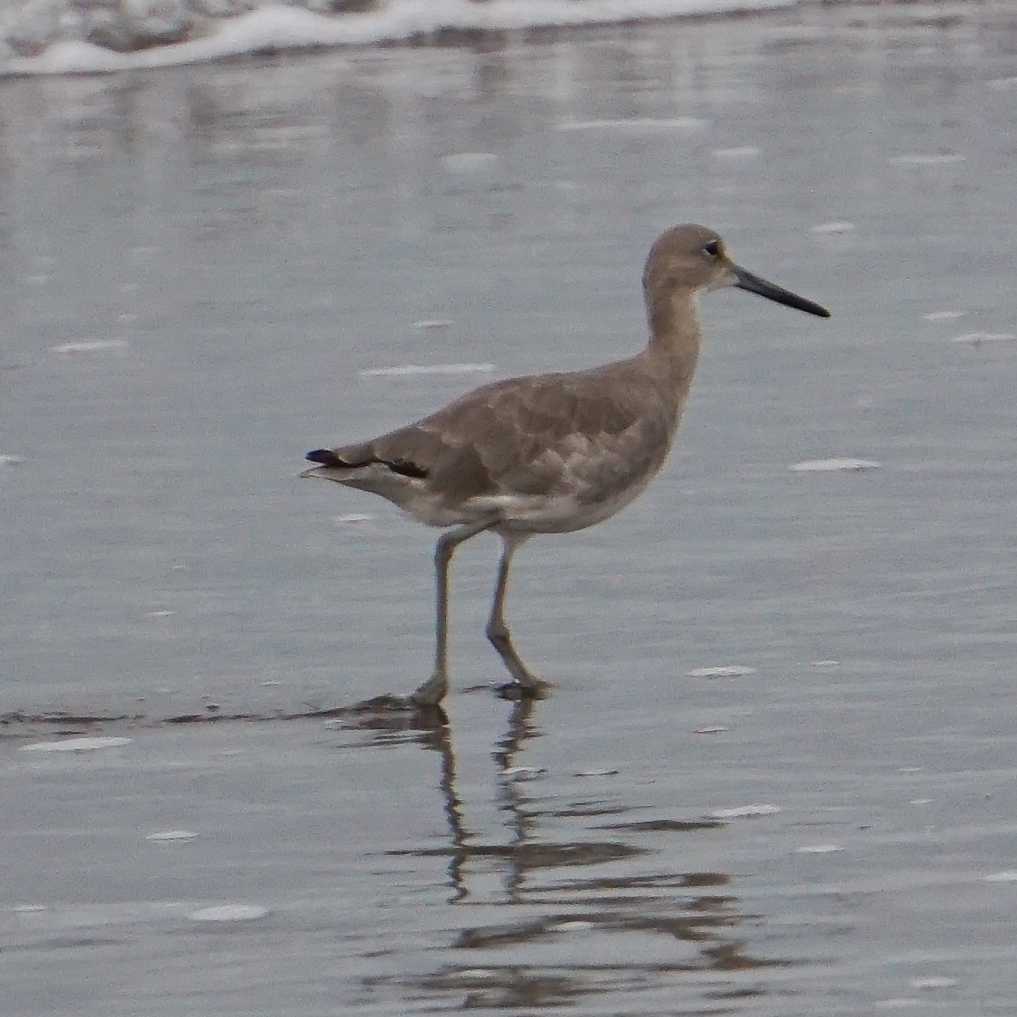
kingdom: Animalia
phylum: Chordata
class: Aves
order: Charadriiformes
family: Scolopacidae
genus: Tringa
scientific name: Tringa semipalmata
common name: Willet
